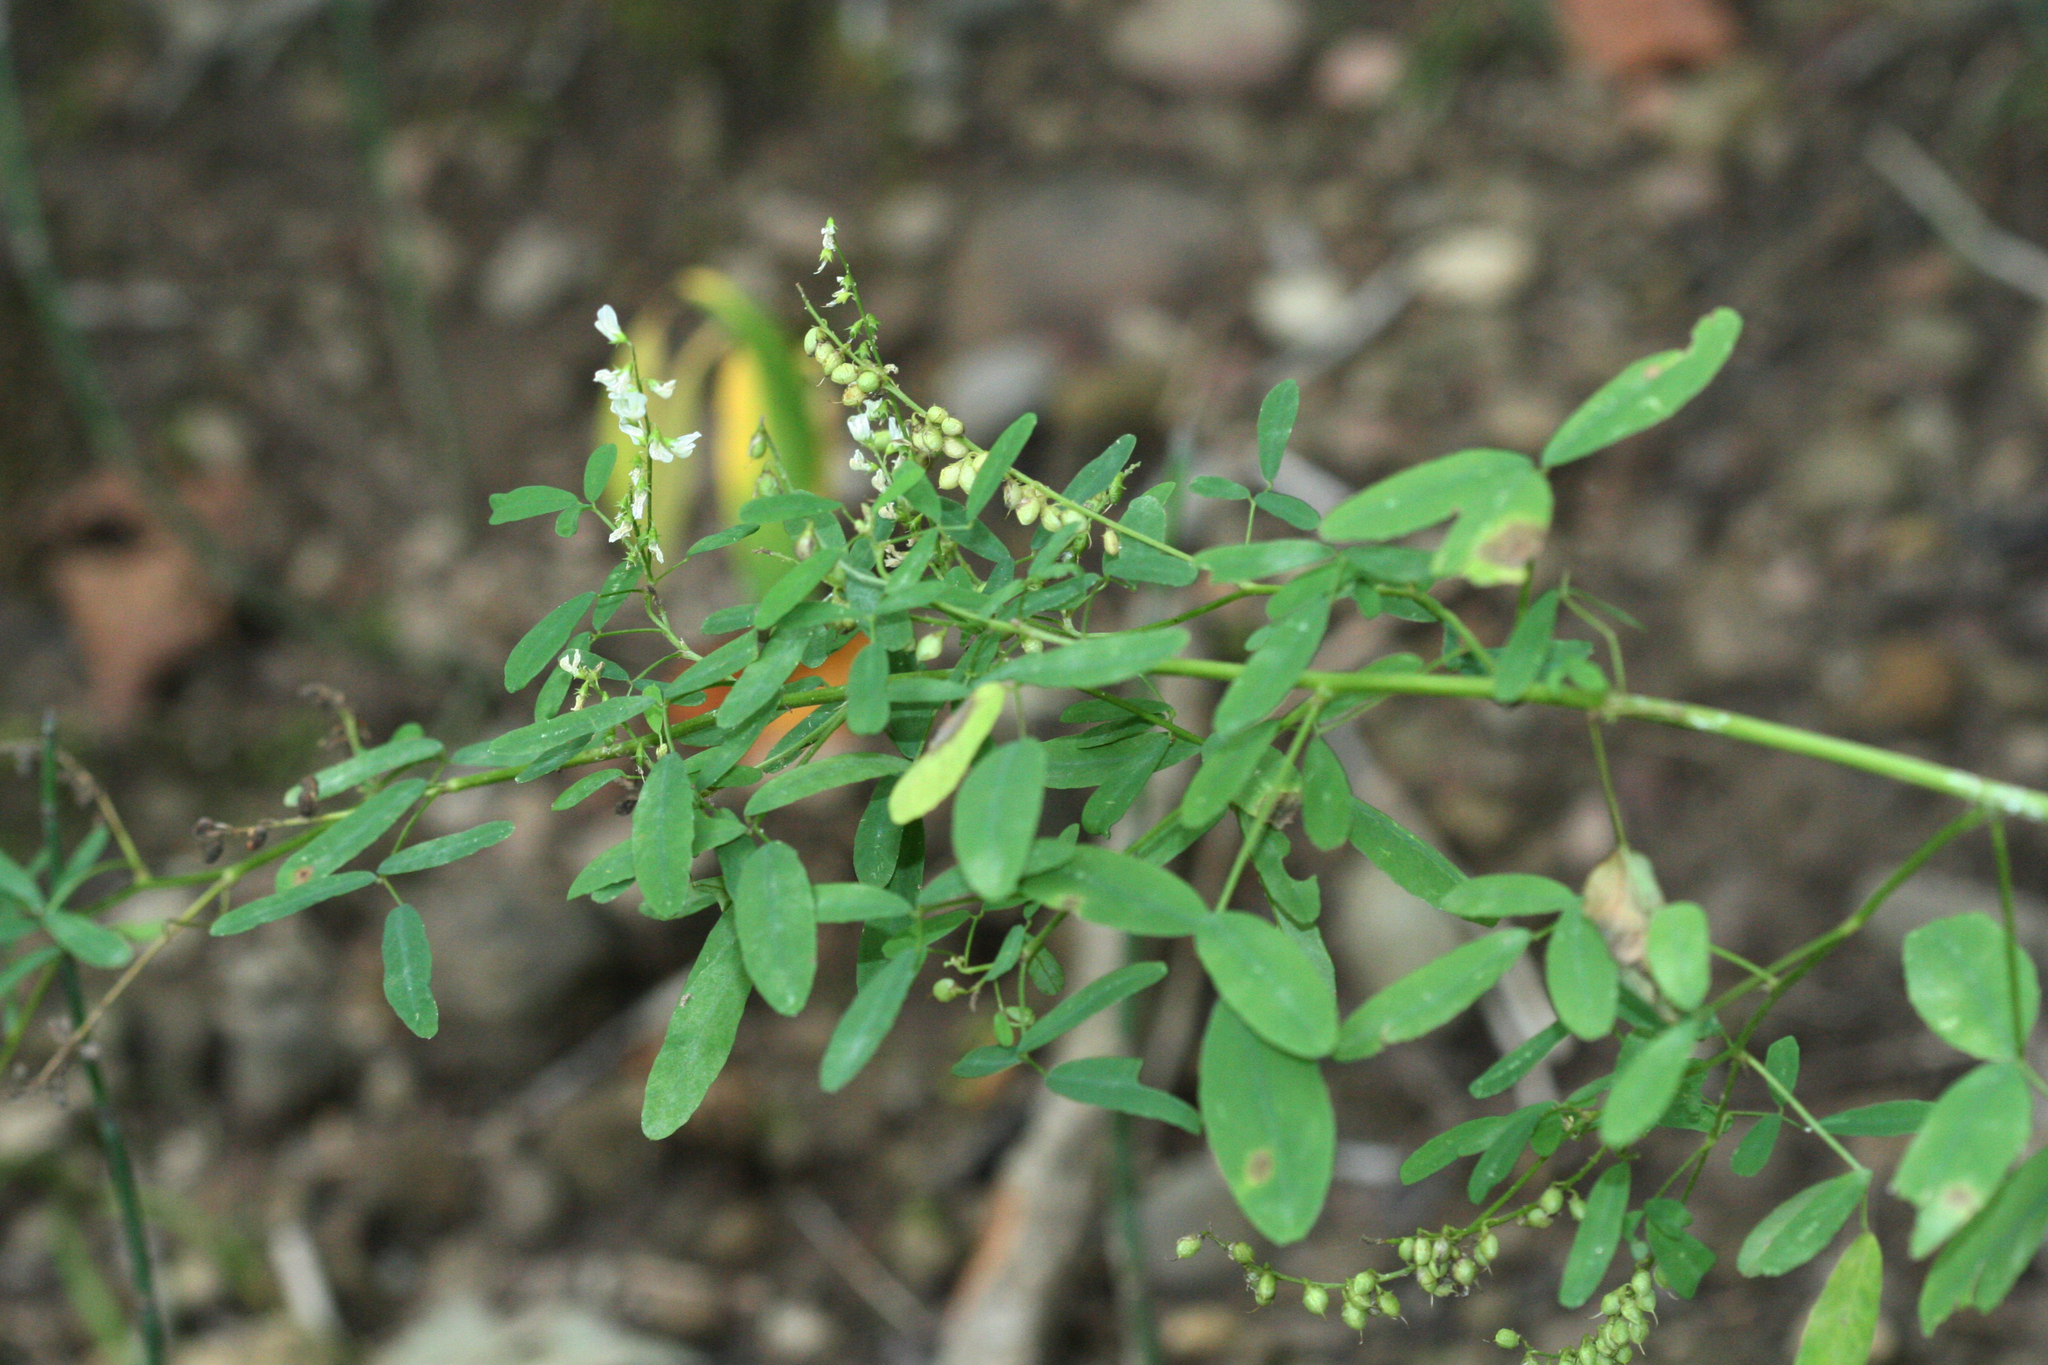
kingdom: Plantae
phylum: Tracheophyta
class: Magnoliopsida
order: Fabales
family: Fabaceae
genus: Melilotus
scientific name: Melilotus albus
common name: White melilot
